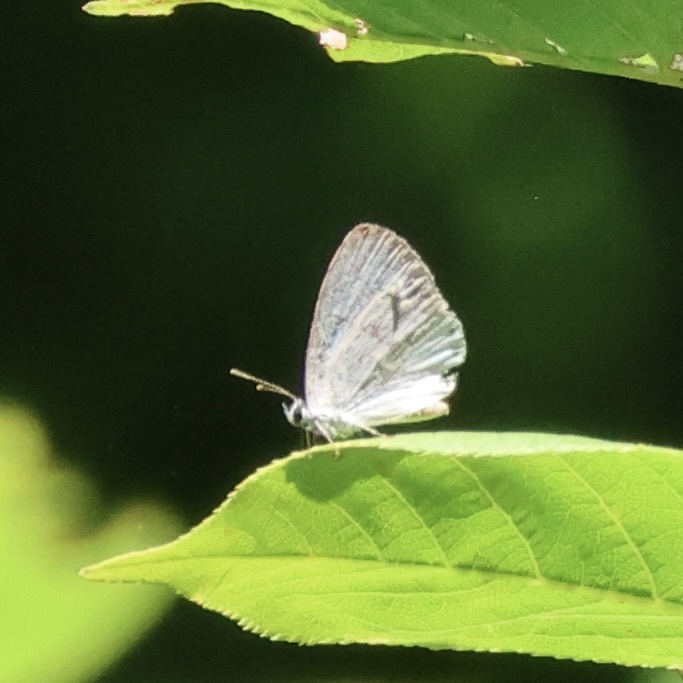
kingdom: Animalia
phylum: Arthropoda
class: Insecta
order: Lepidoptera
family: Lycaenidae
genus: Cyaniris
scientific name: Cyaniris neglecta
